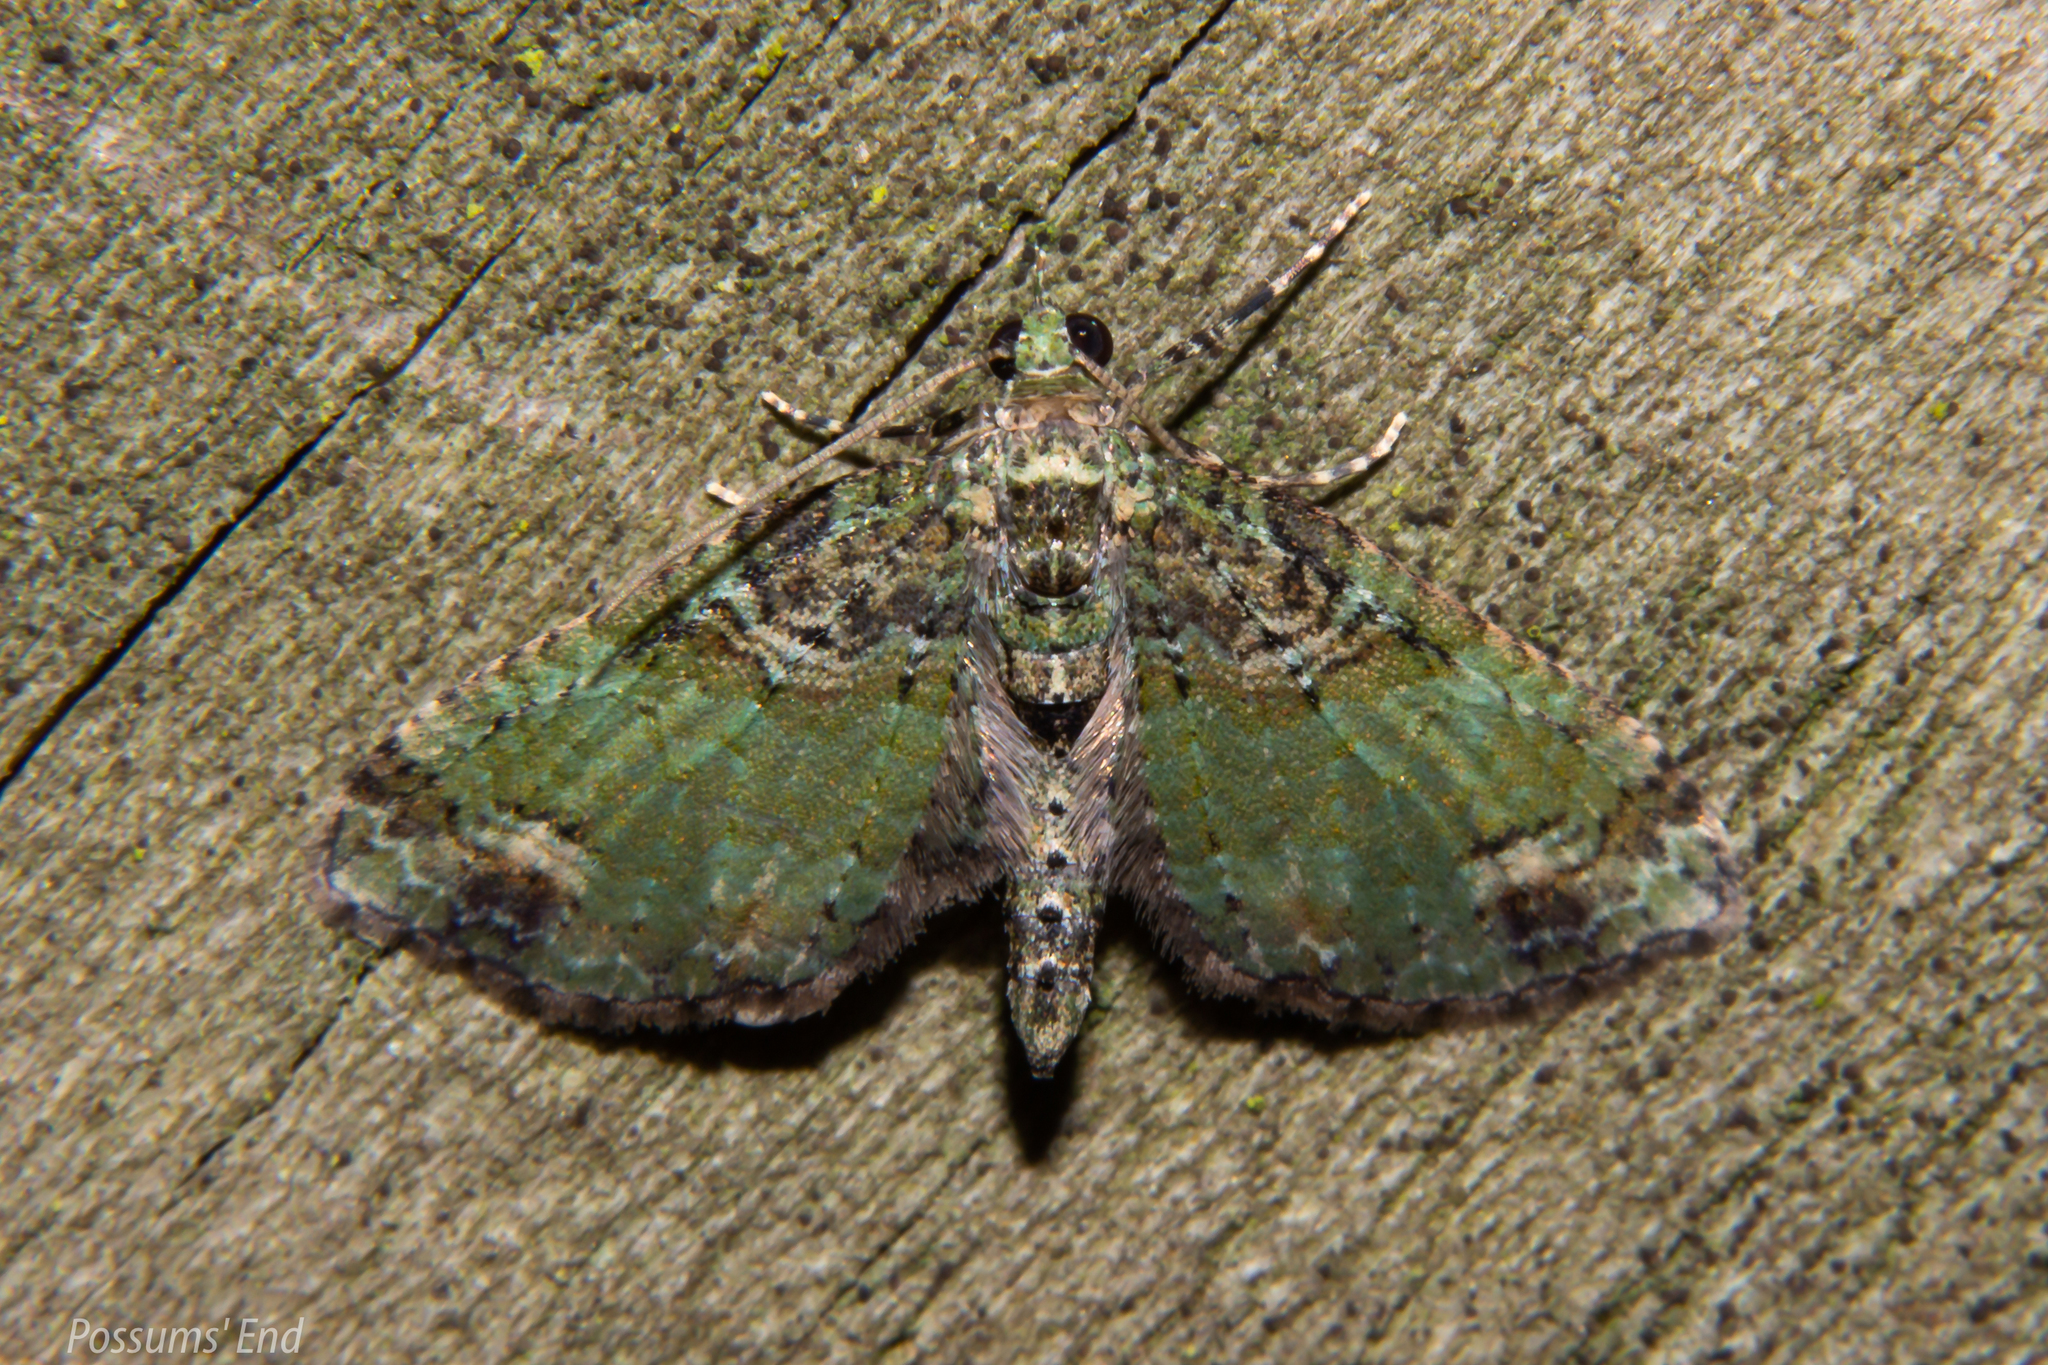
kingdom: Animalia
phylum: Arthropoda
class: Insecta
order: Lepidoptera
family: Geometridae
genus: Idaea
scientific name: Idaea mutanda
